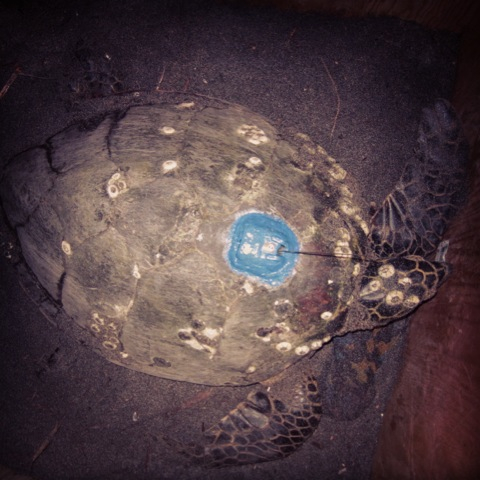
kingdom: Animalia
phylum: Chordata
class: Testudines
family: Cheloniidae
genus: Eretmochelys
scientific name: Eretmochelys imbricata
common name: Hawksbill turtle
